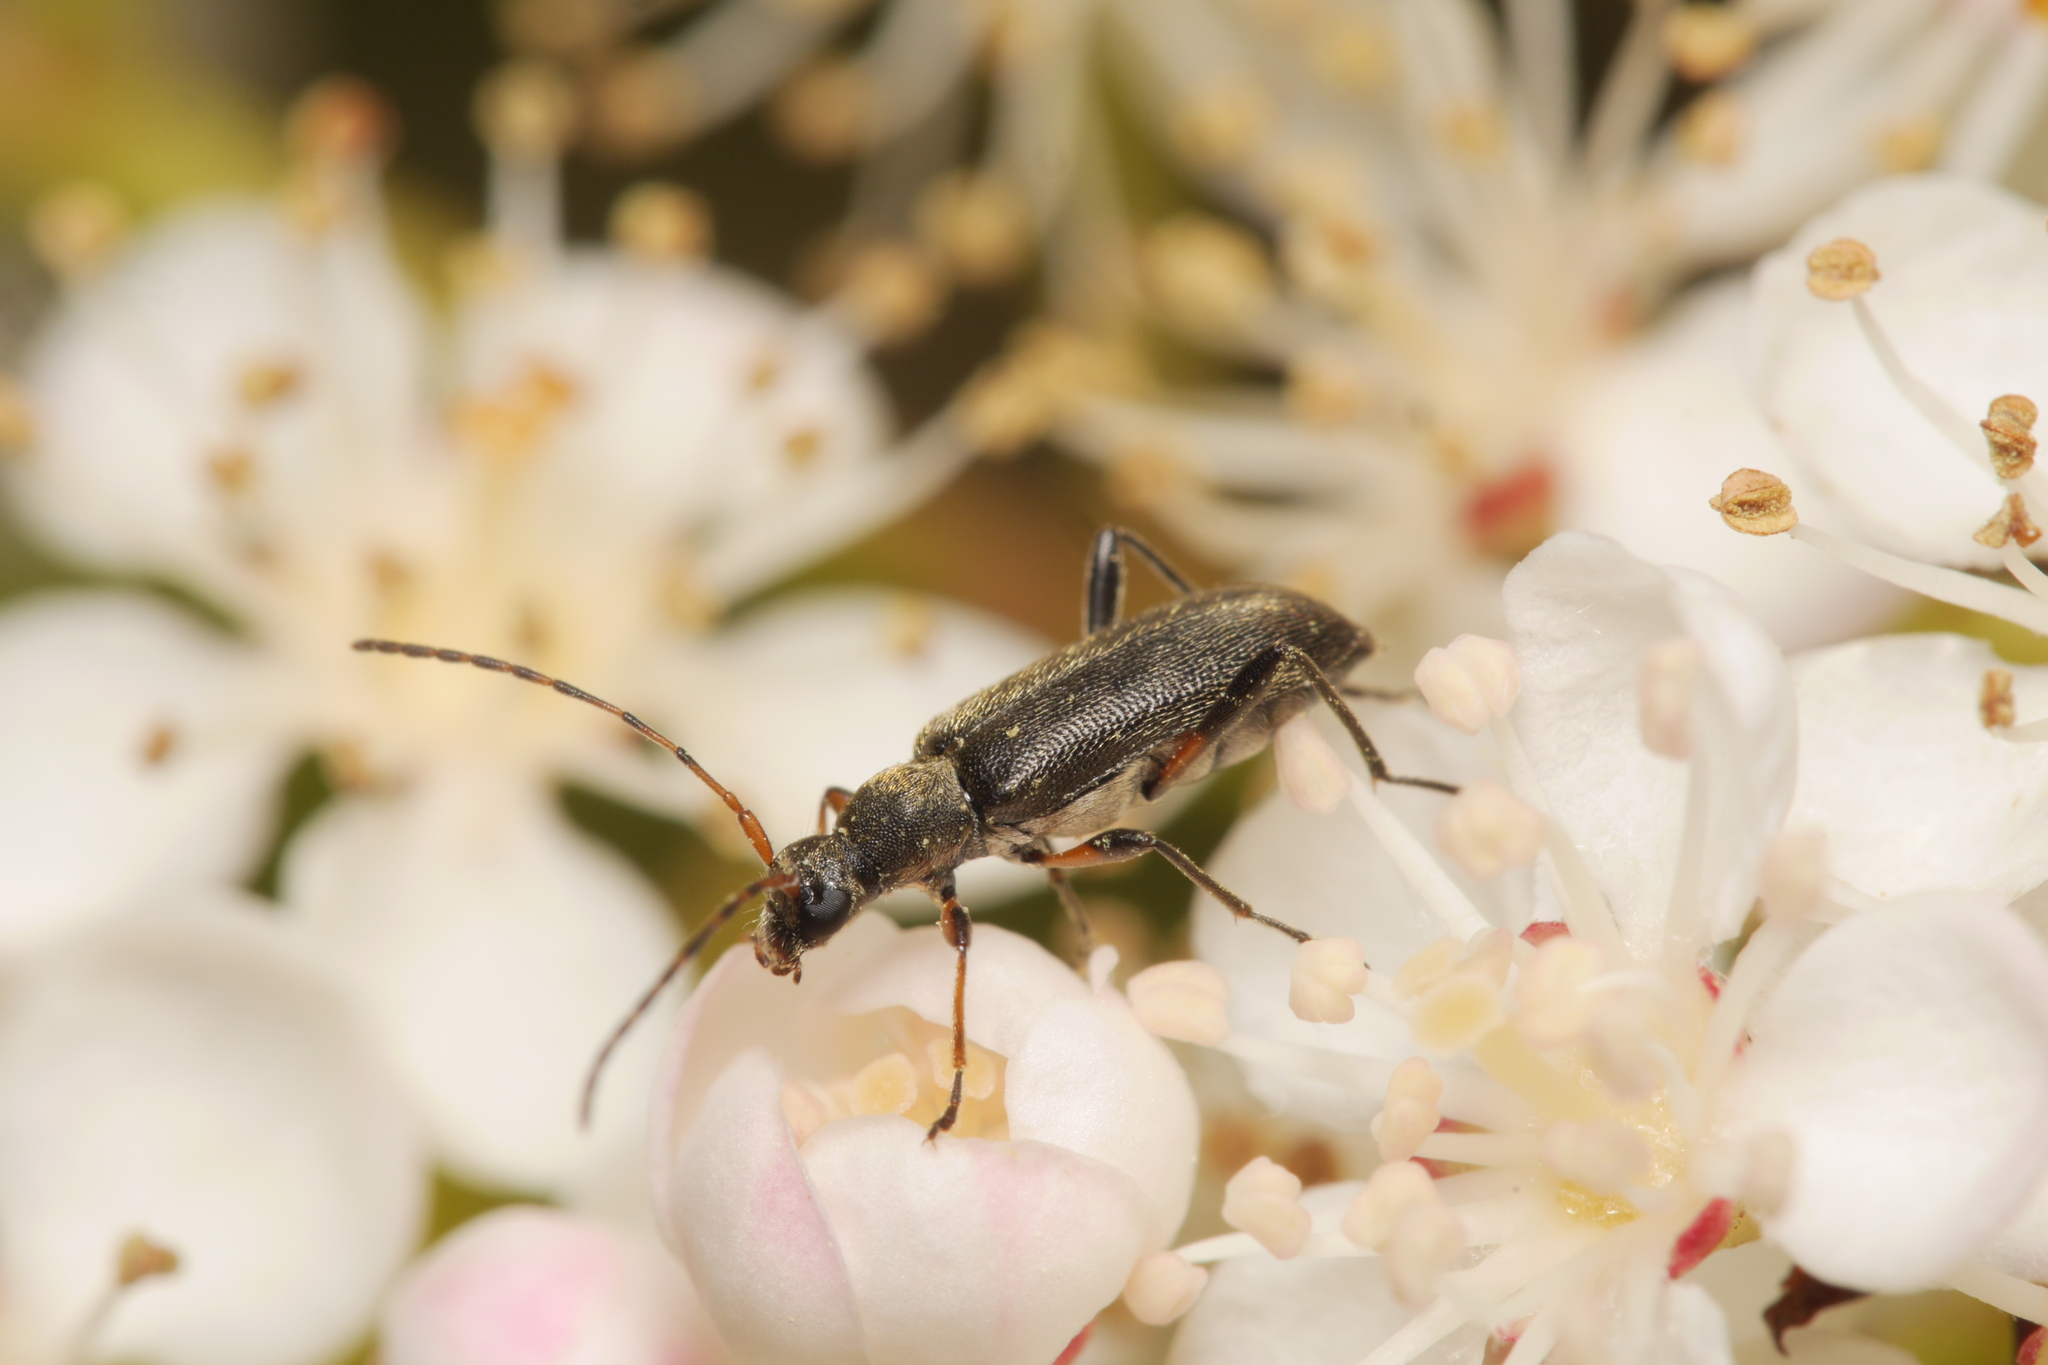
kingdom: Animalia
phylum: Arthropoda
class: Insecta
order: Coleoptera
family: Cerambycidae
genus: Grammoptera
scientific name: Grammoptera ruficornis
